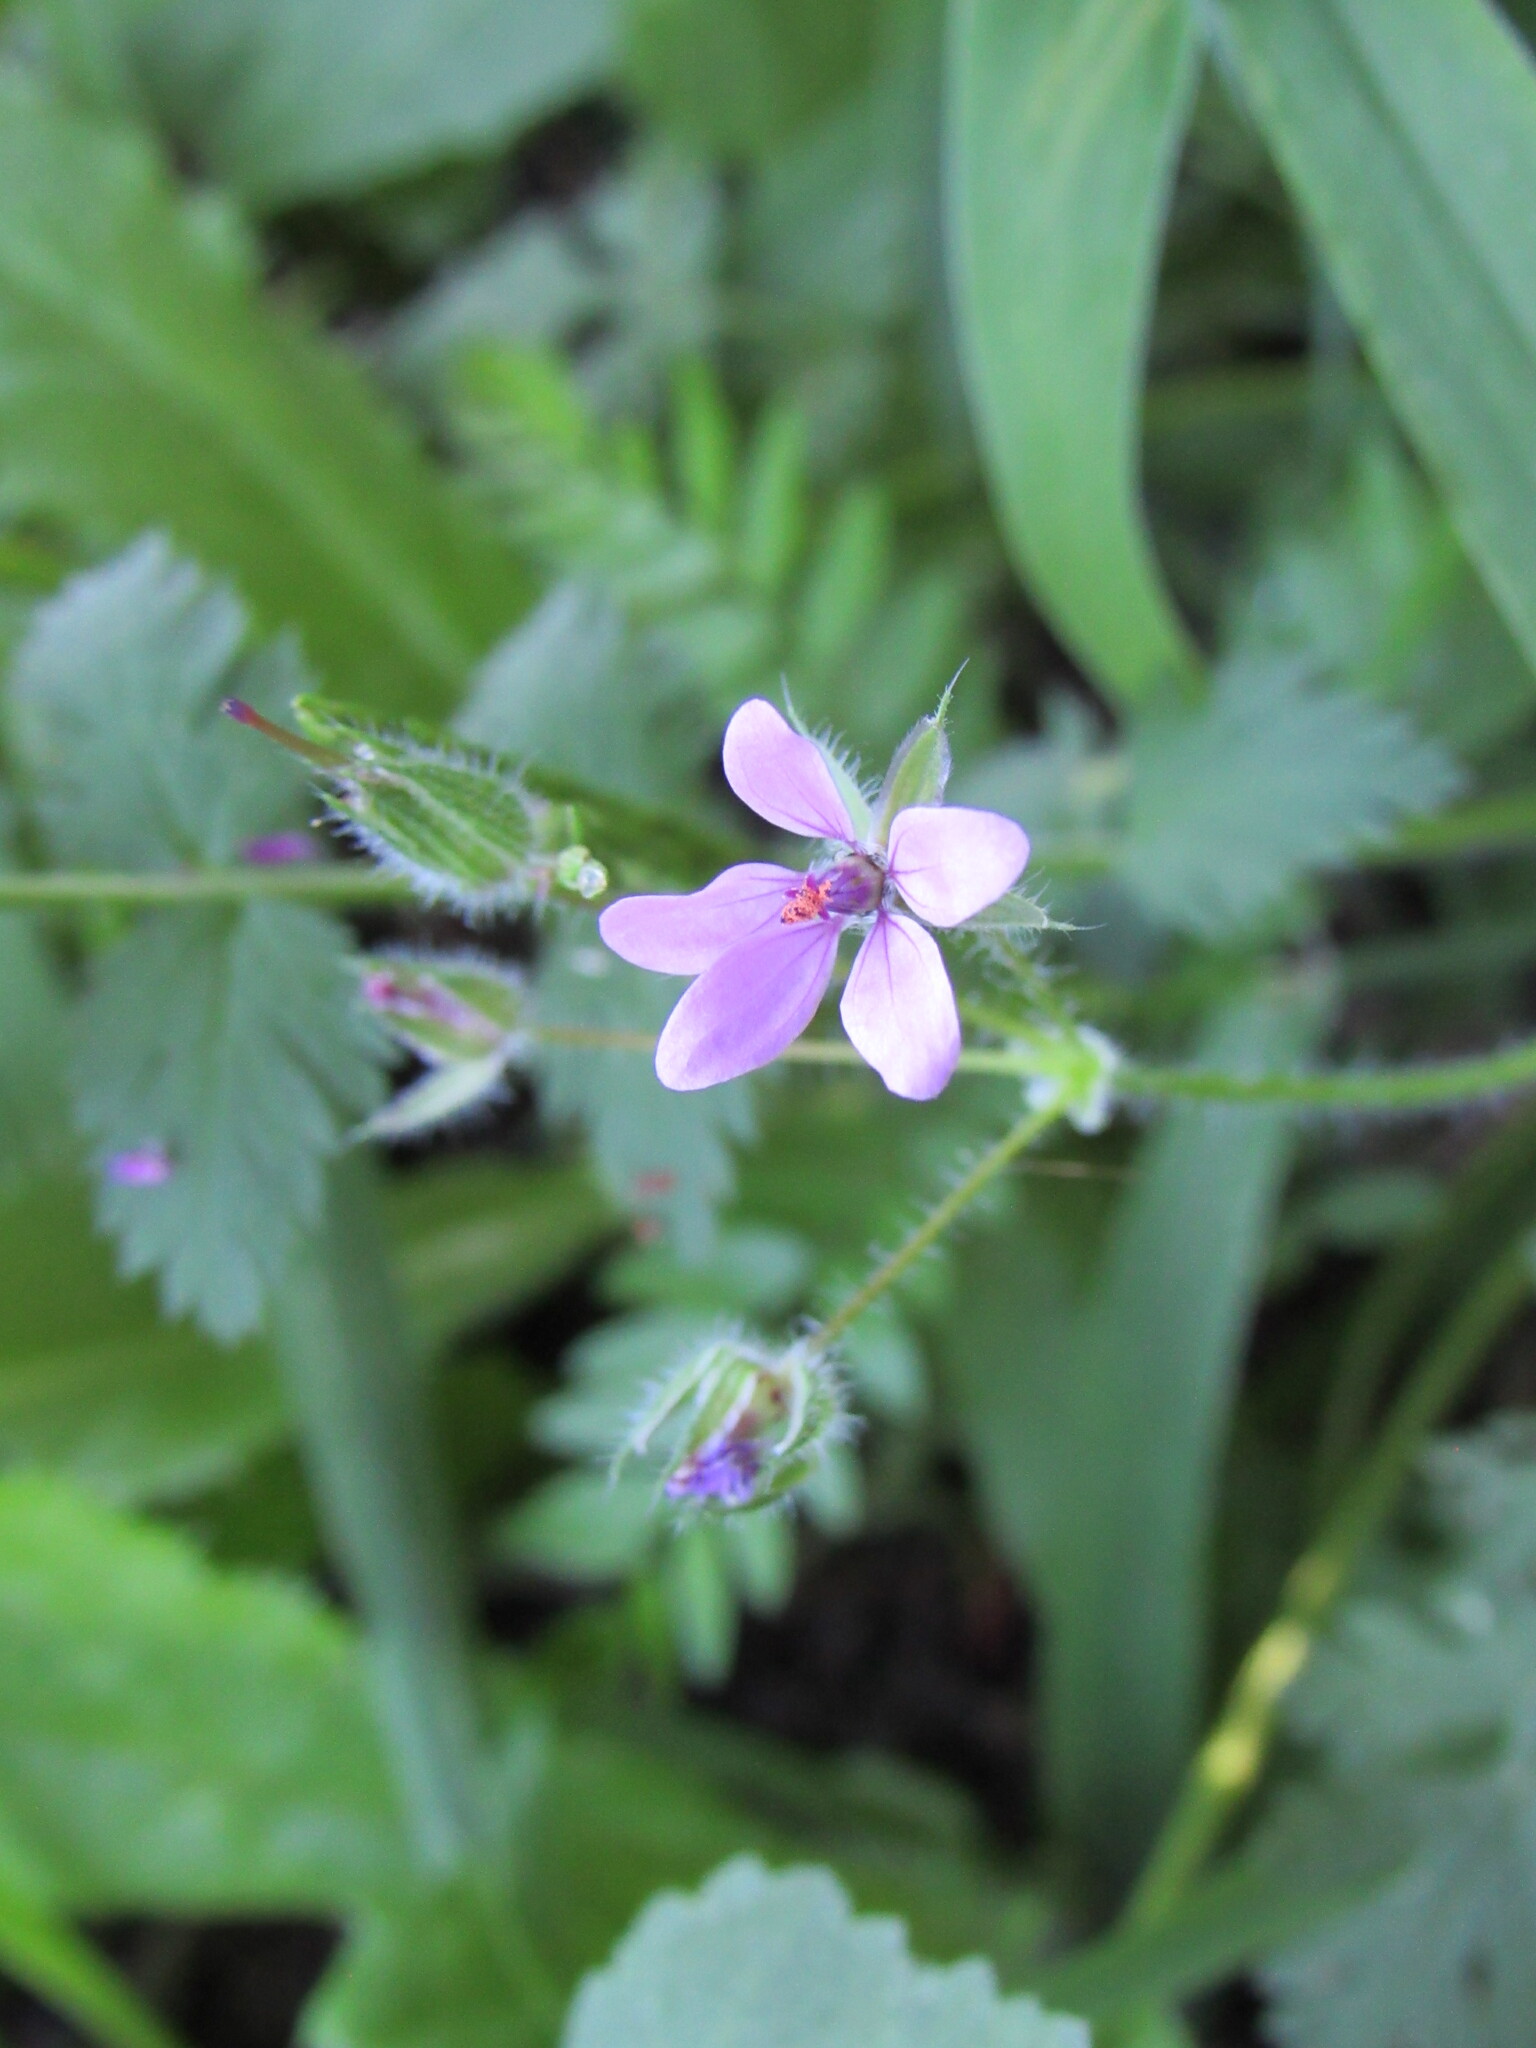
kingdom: Plantae
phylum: Tracheophyta
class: Magnoliopsida
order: Geraniales
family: Geraniaceae
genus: Erodium
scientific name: Erodium cicutarium
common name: Common stork's-bill
